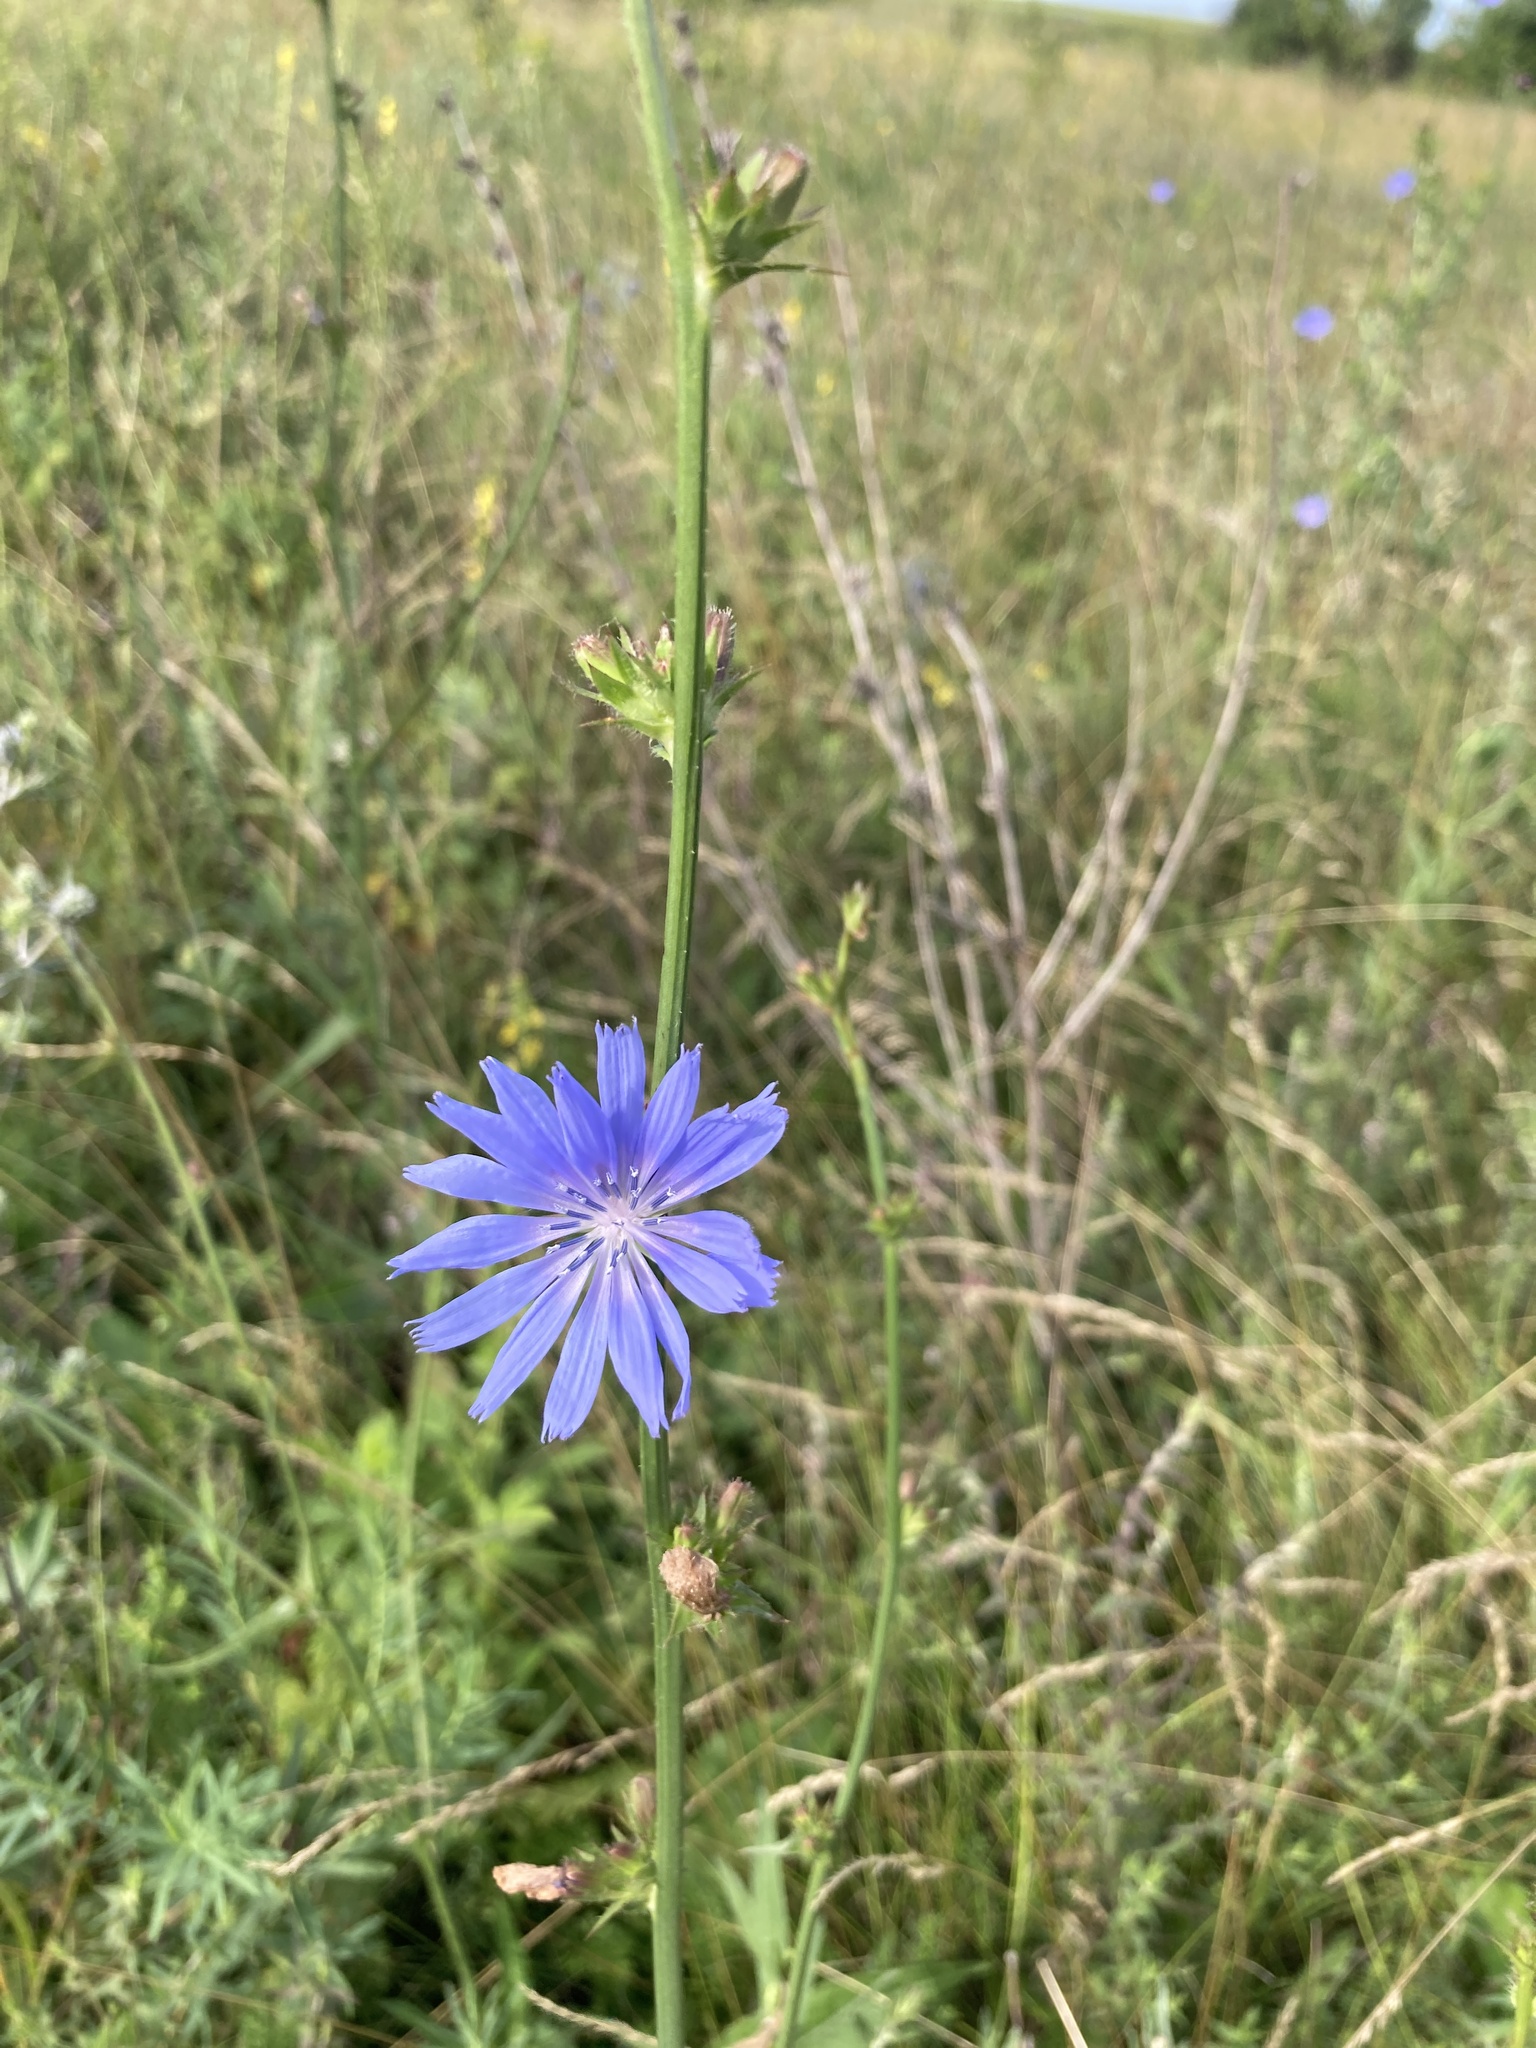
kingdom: Plantae
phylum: Tracheophyta
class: Magnoliopsida
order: Asterales
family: Asteraceae
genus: Cichorium
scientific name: Cichorium intybus
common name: Chicory
